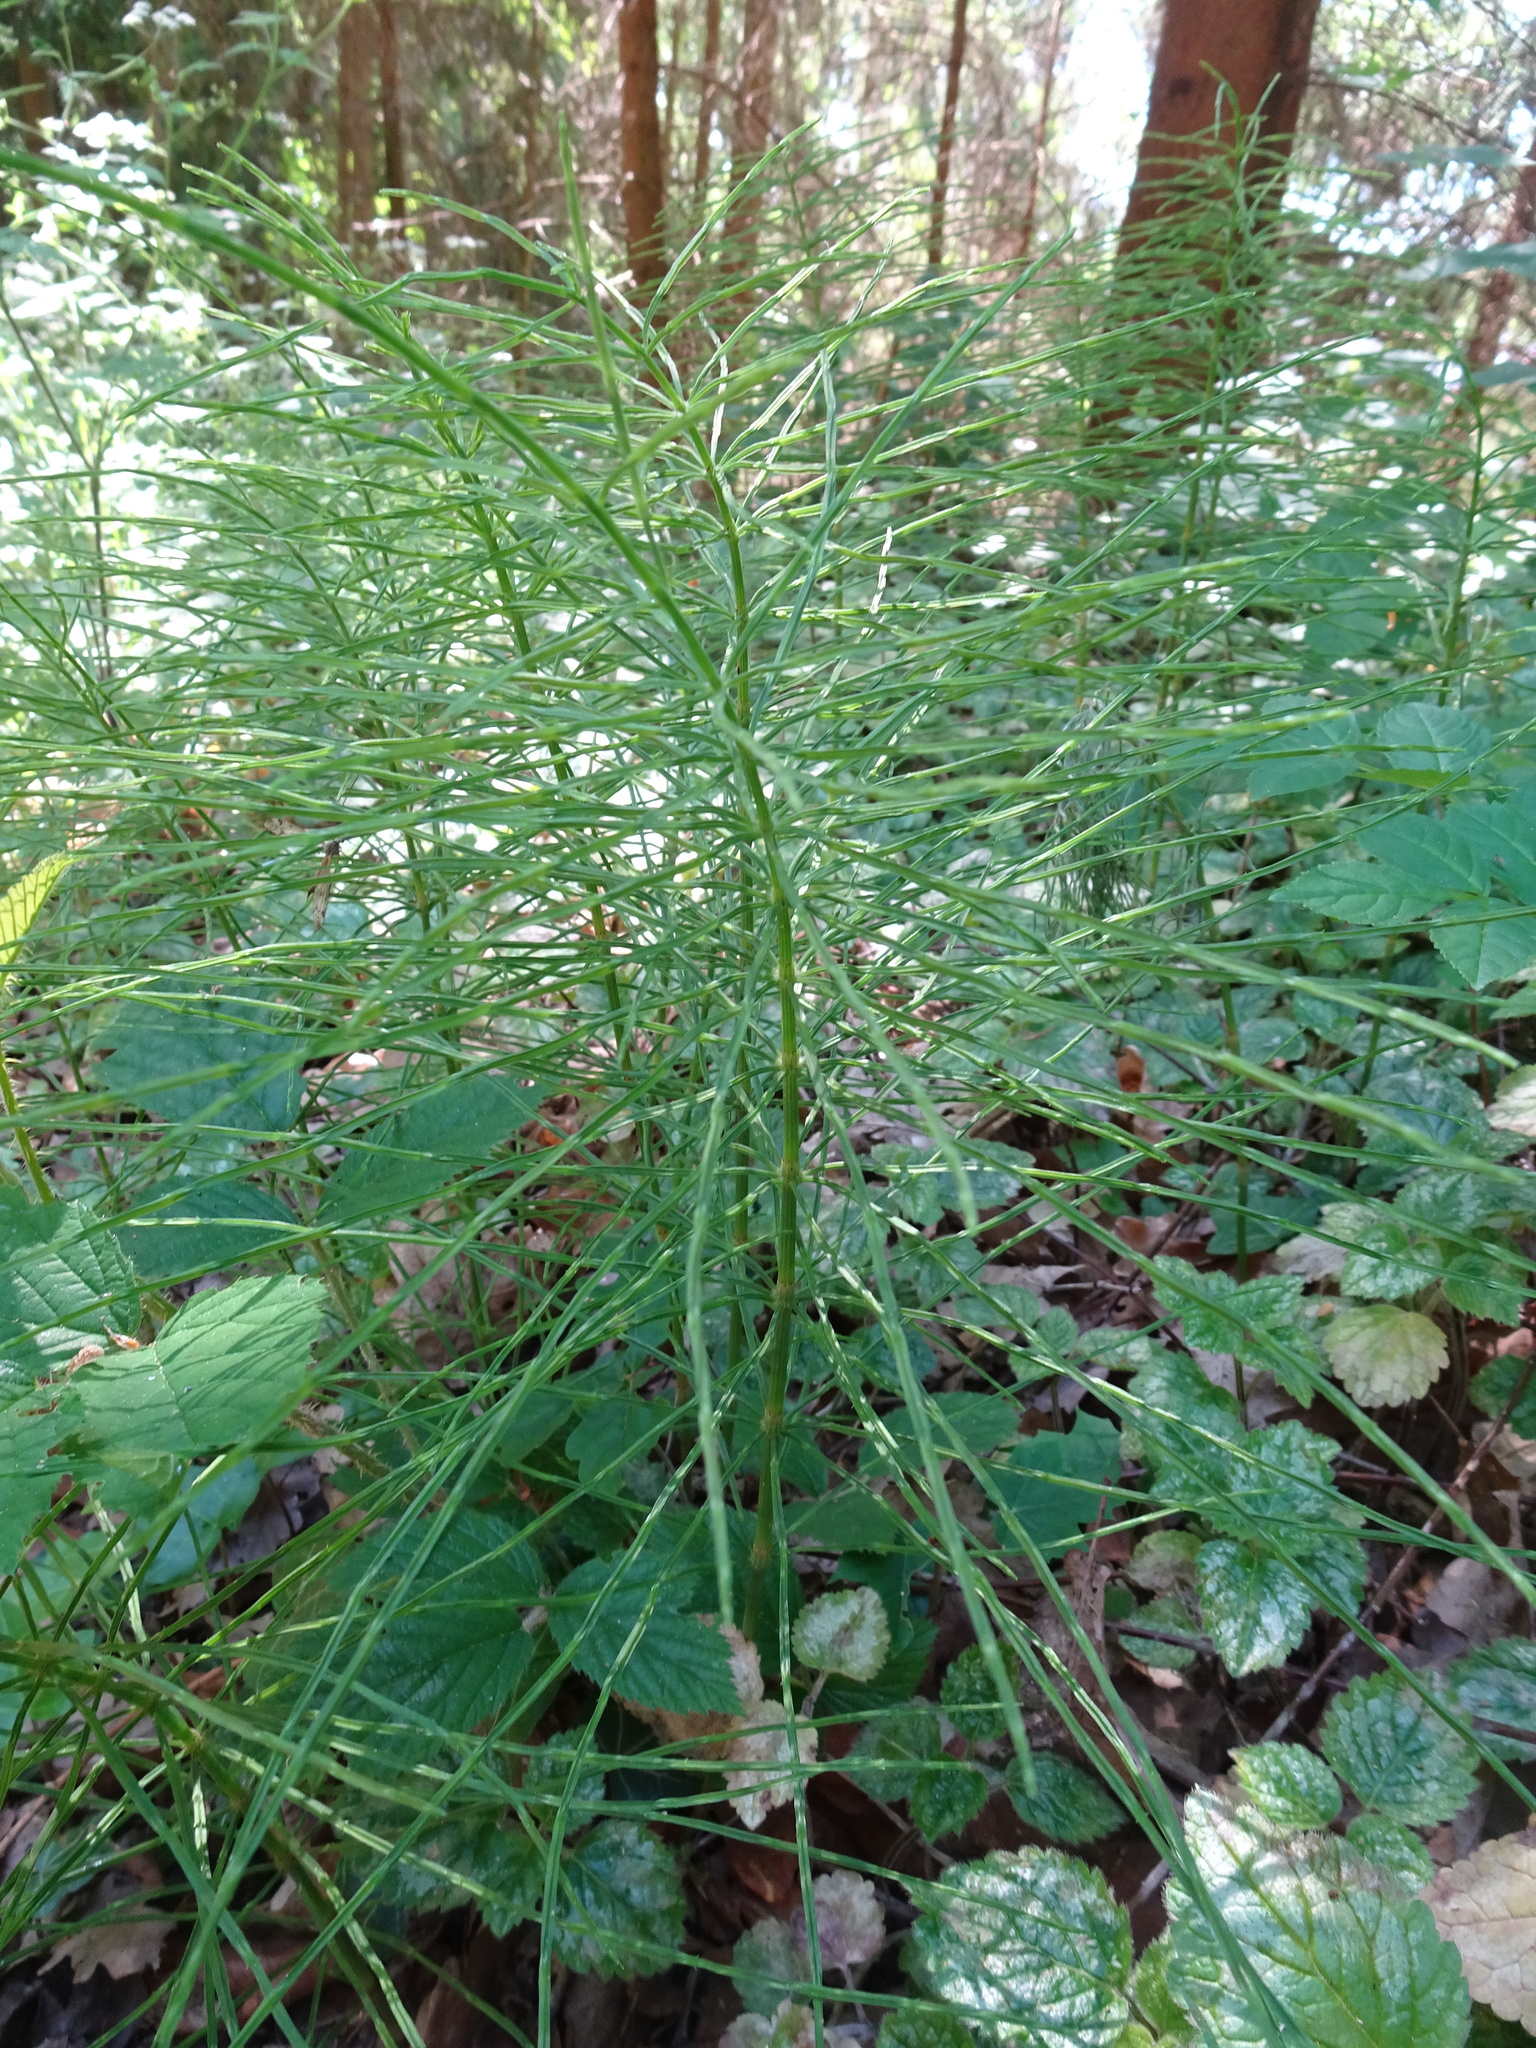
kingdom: Plantae
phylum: Tracheophyta
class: Polypodiopsida
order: Equisetales
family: Equisetaceae
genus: Equisetum
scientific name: Equisetum arvense
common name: Field horsetail
